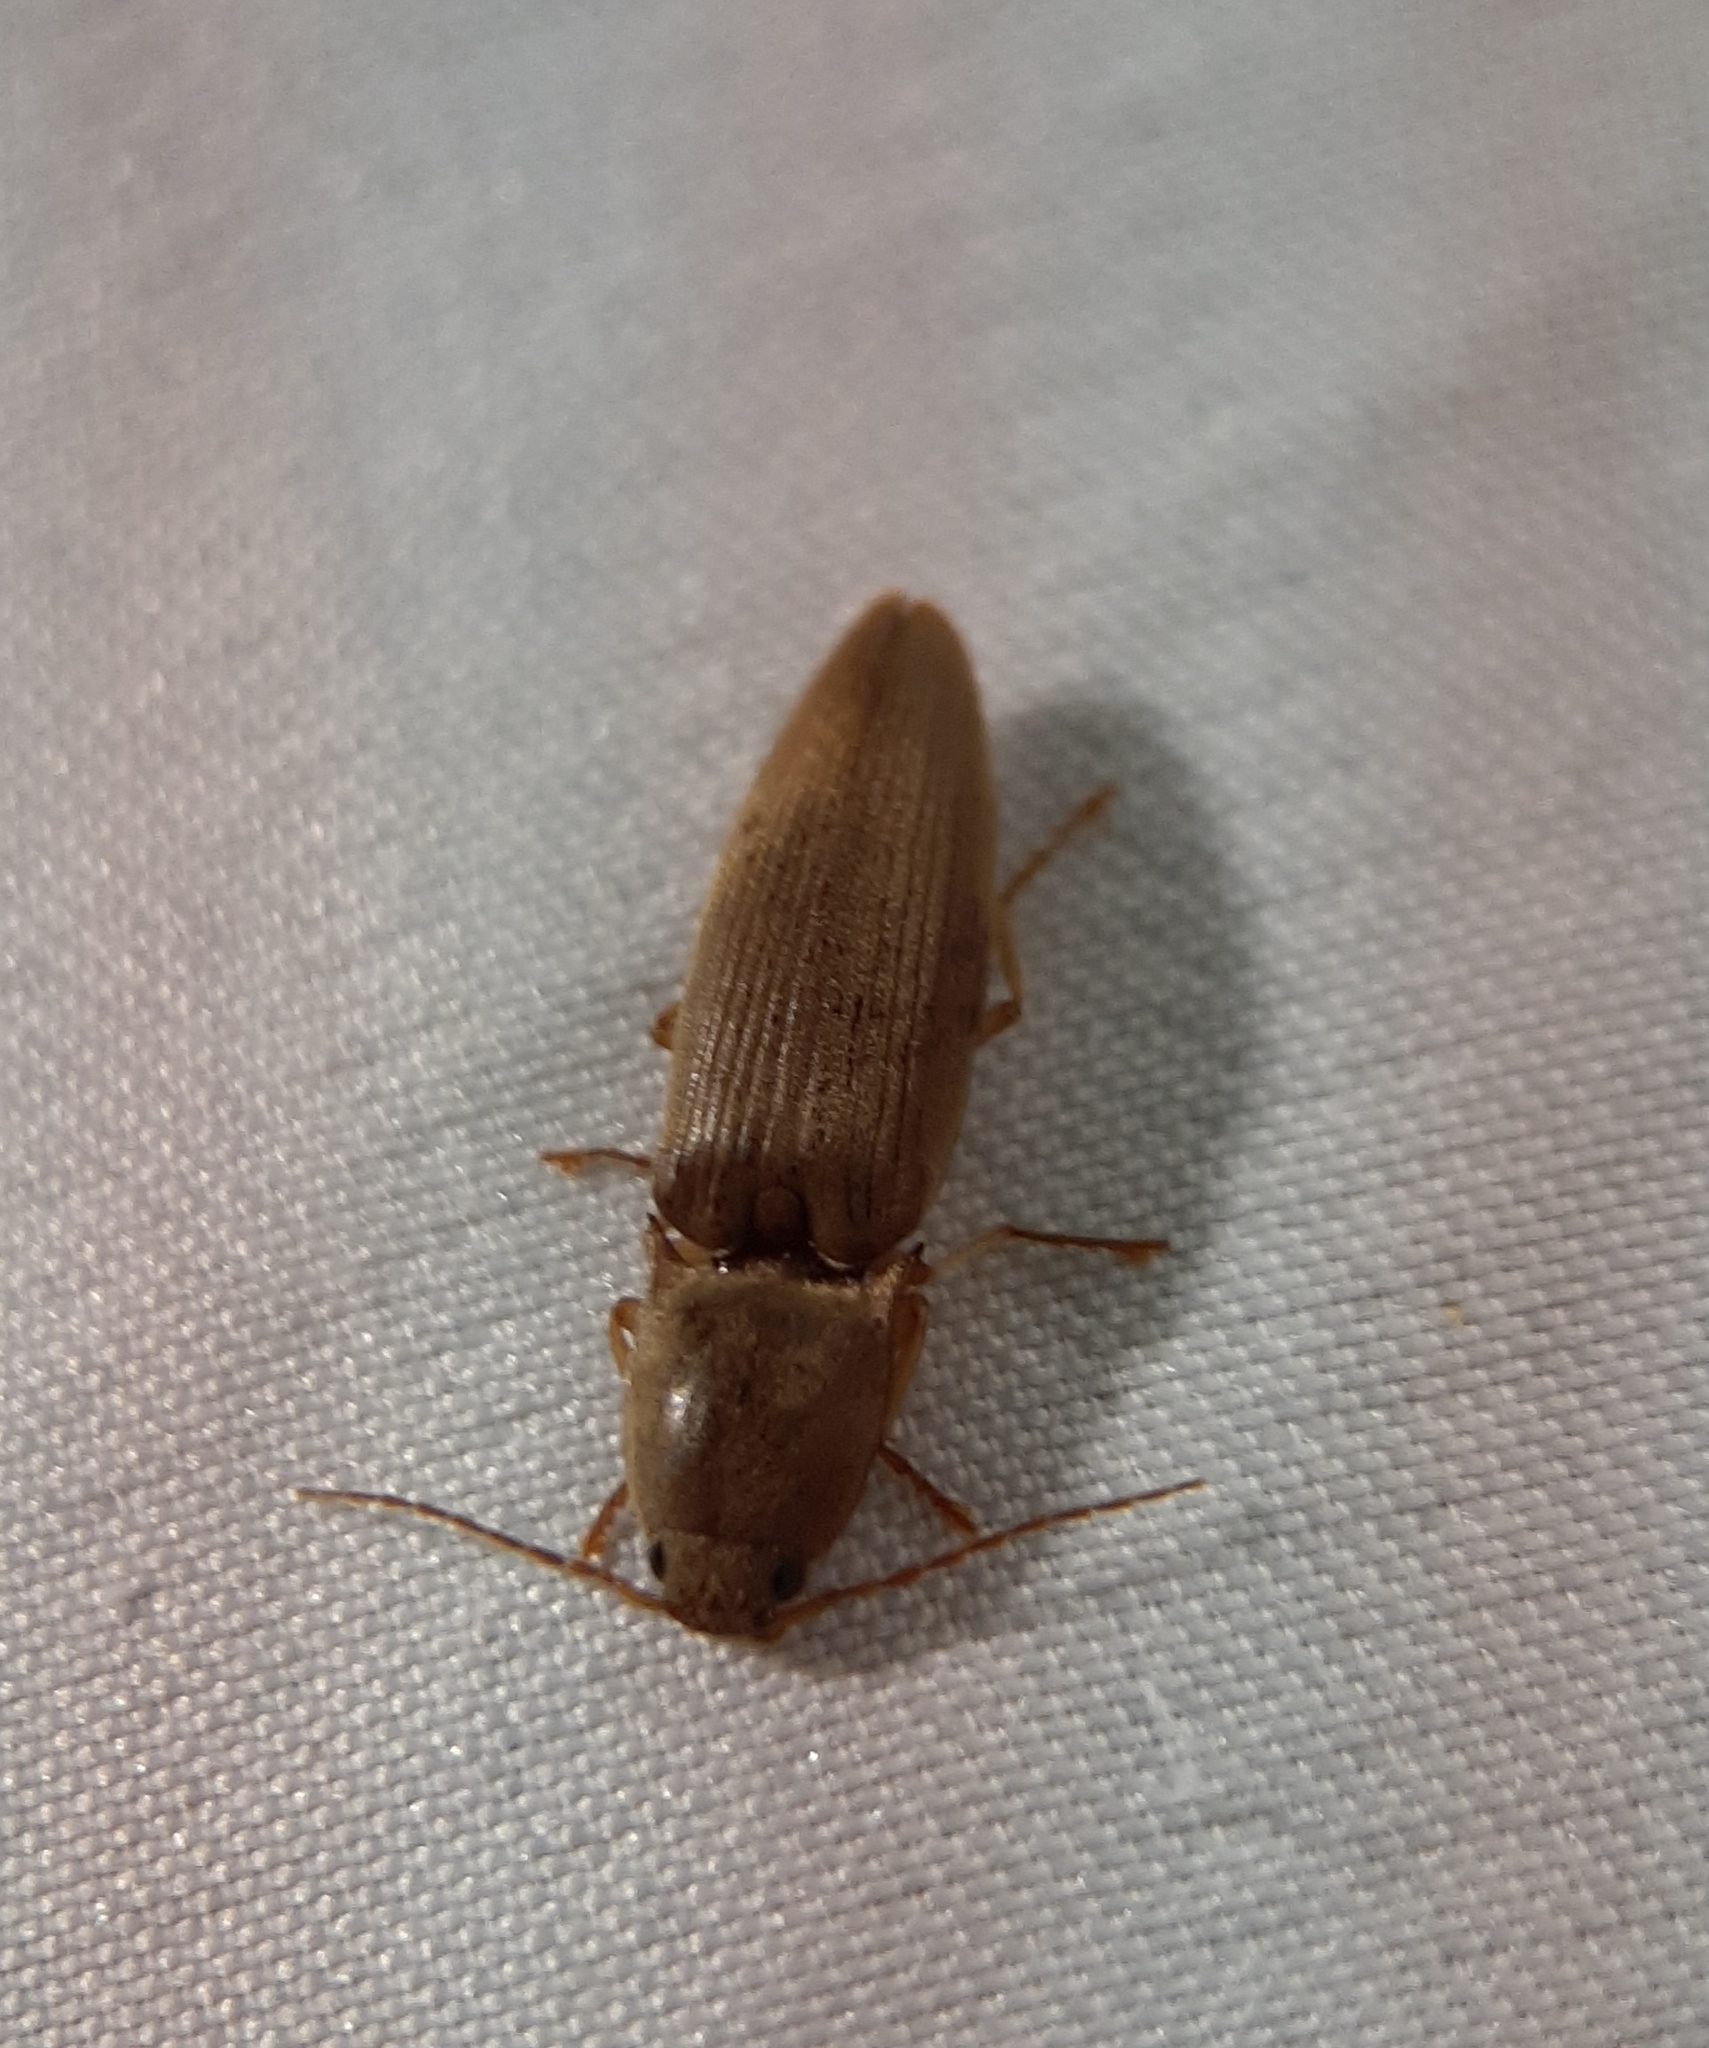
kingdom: Animalia
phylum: Arthropoda
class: Insecta
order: Coleoptera
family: Elateridae
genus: Monocrepidius
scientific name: Monocrepidius lividus
